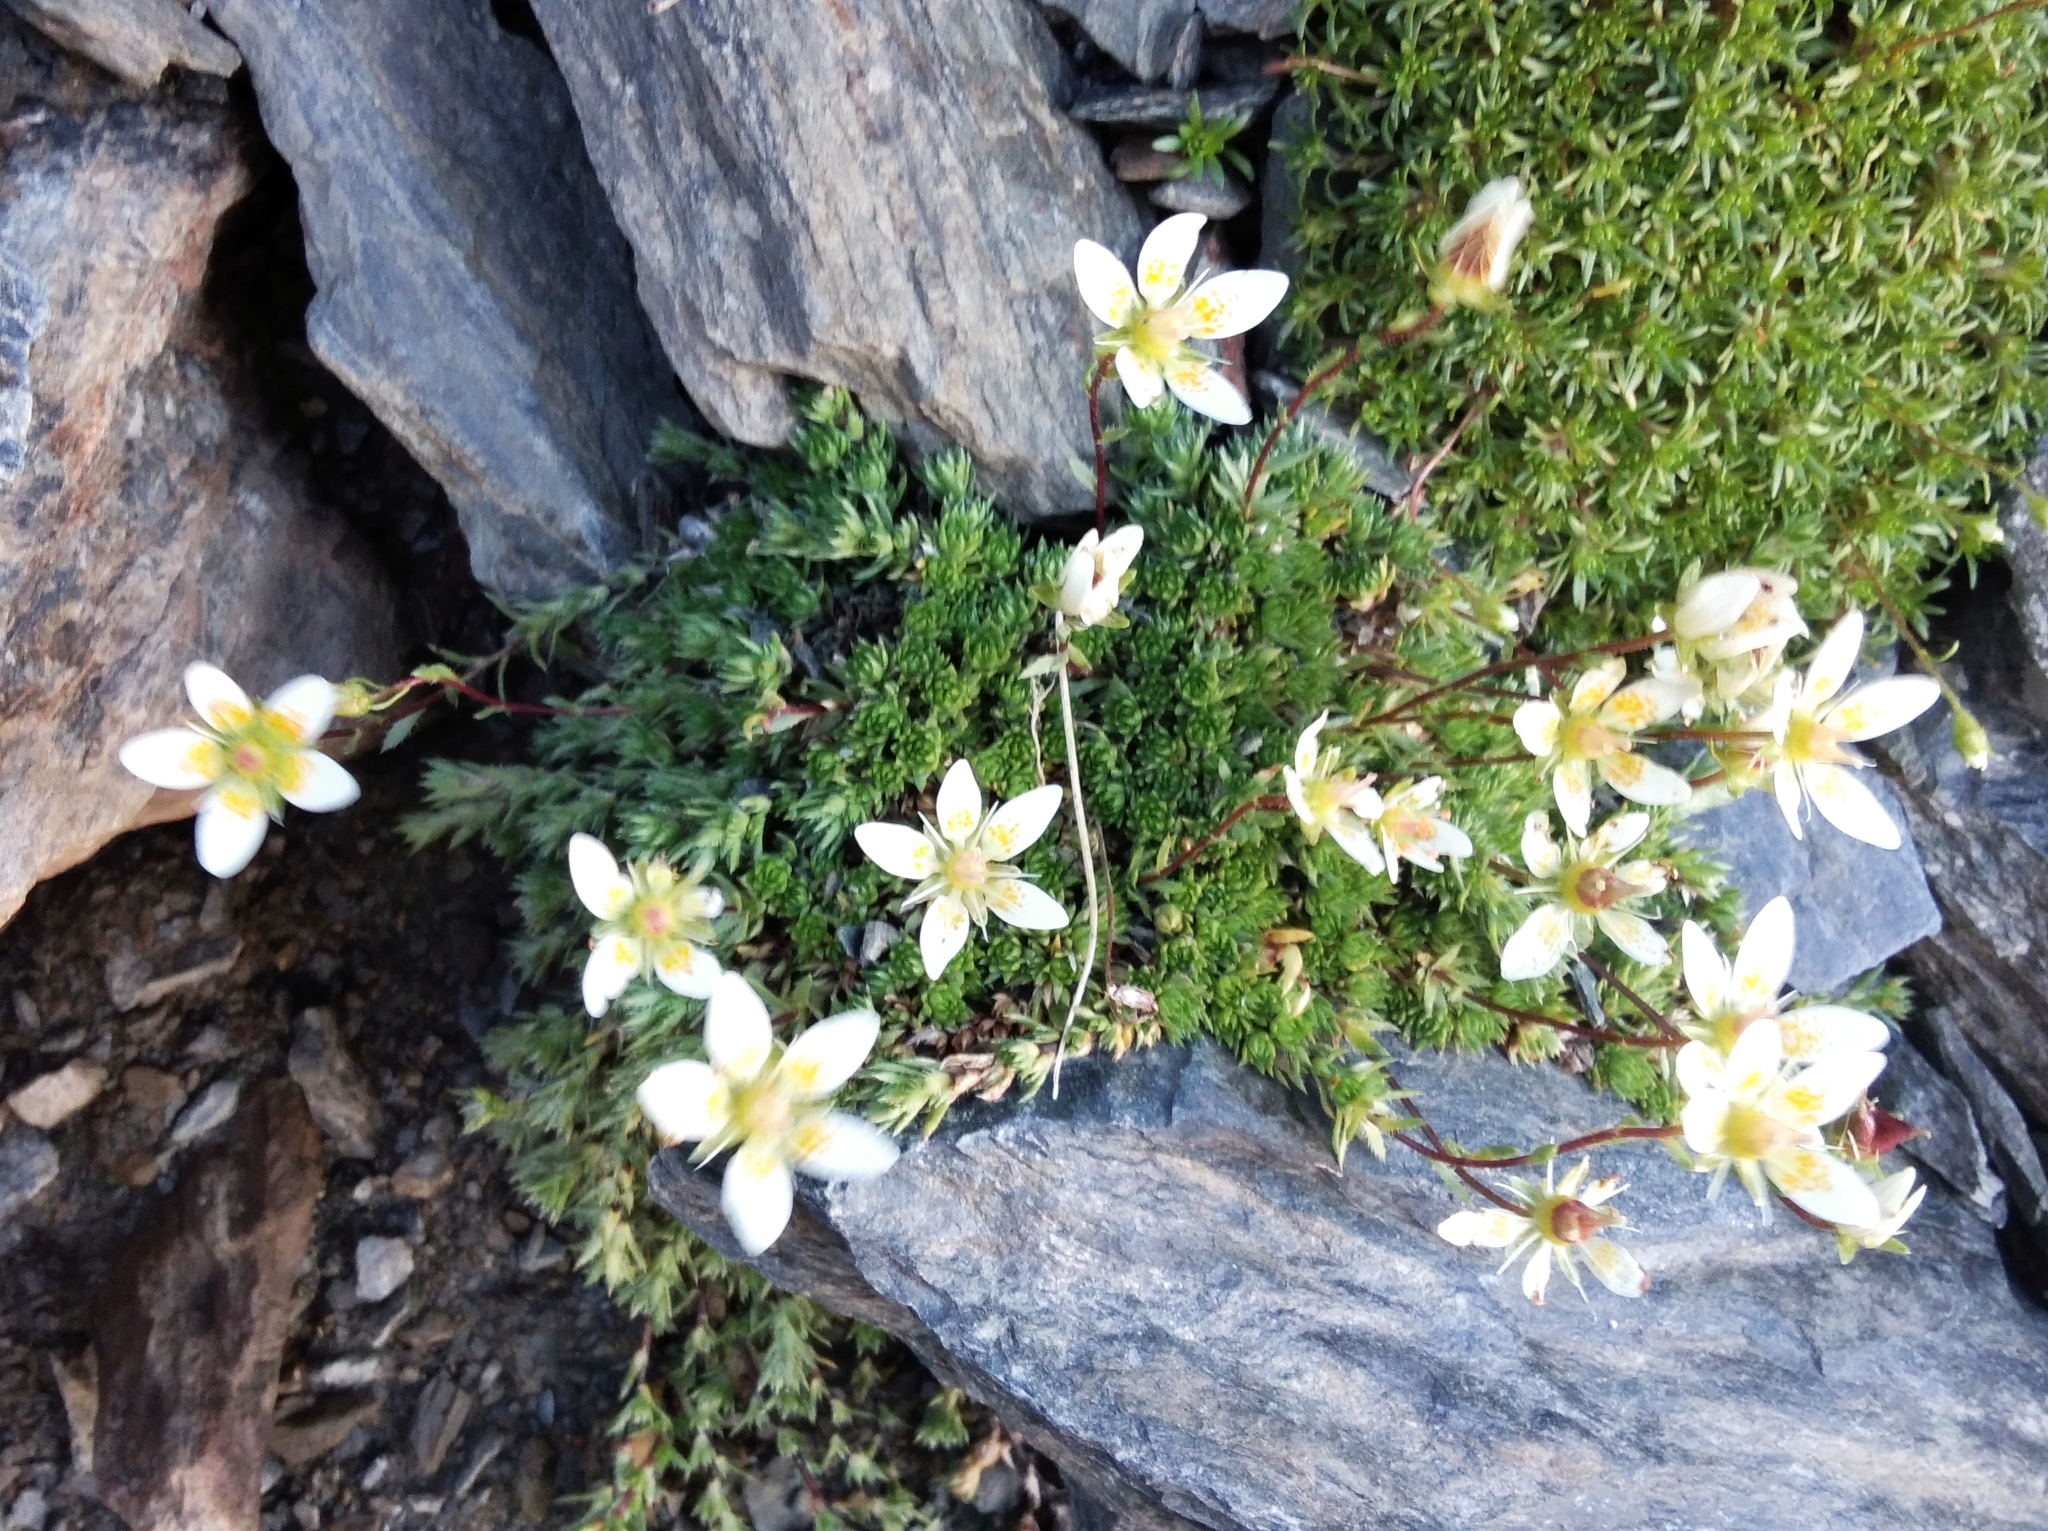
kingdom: Plantae
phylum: Tracheophyta
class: Magnoliopsida
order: Saxifragales
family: Saxifragaceae
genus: Saxifraga
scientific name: Saxifraga bryoides
